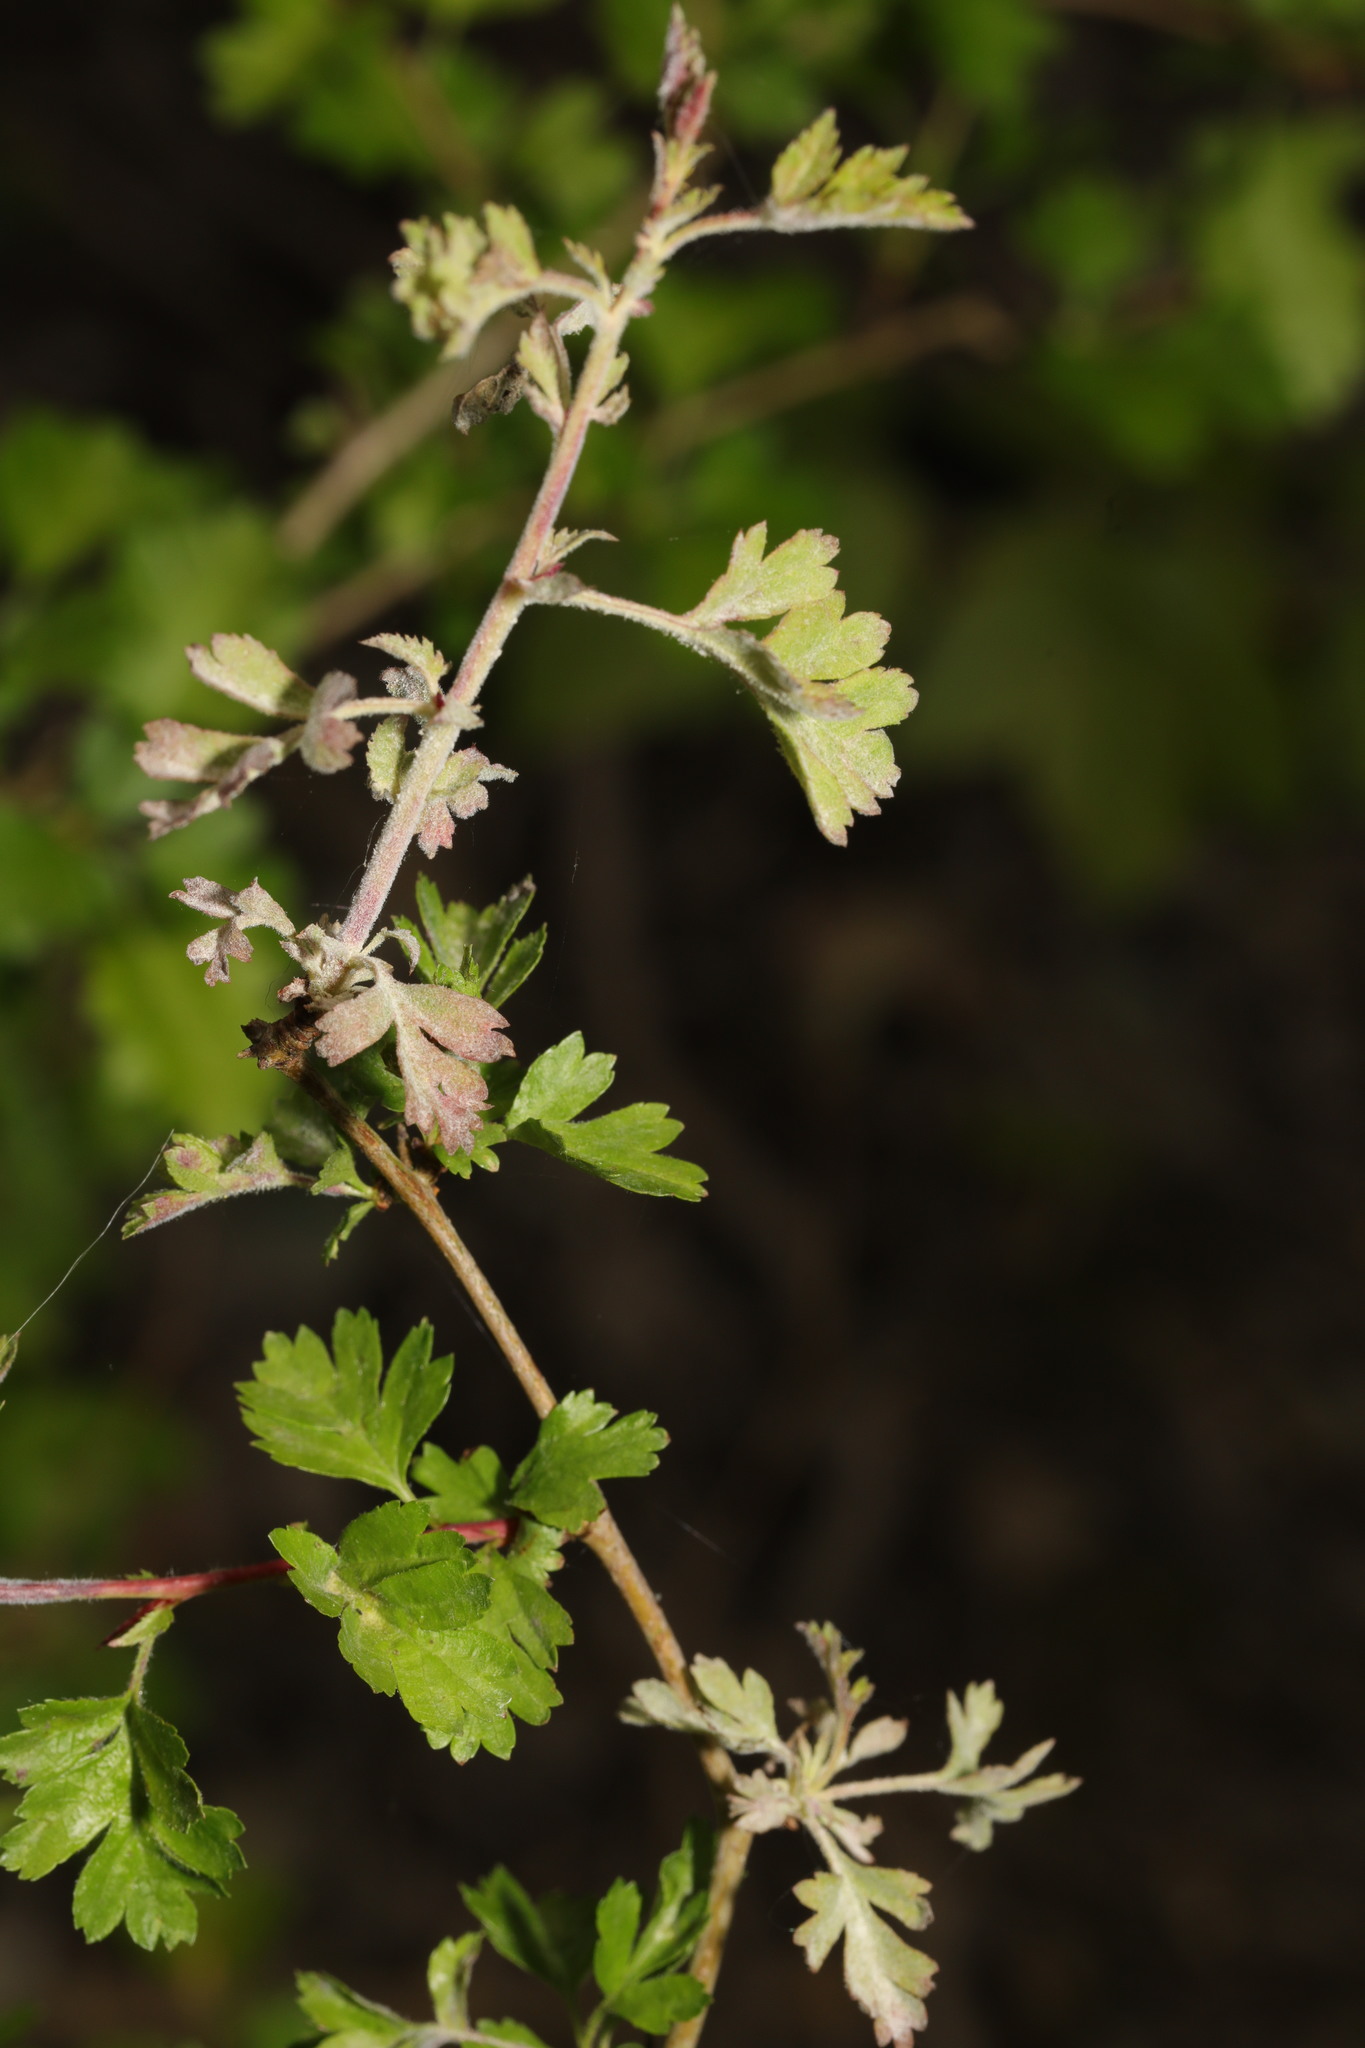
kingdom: Fungi
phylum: Ascomycota
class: Leotiomycetes
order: Helotiales
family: Erysiphaceae
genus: Podosphaera
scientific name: Podosphaera clandestina
